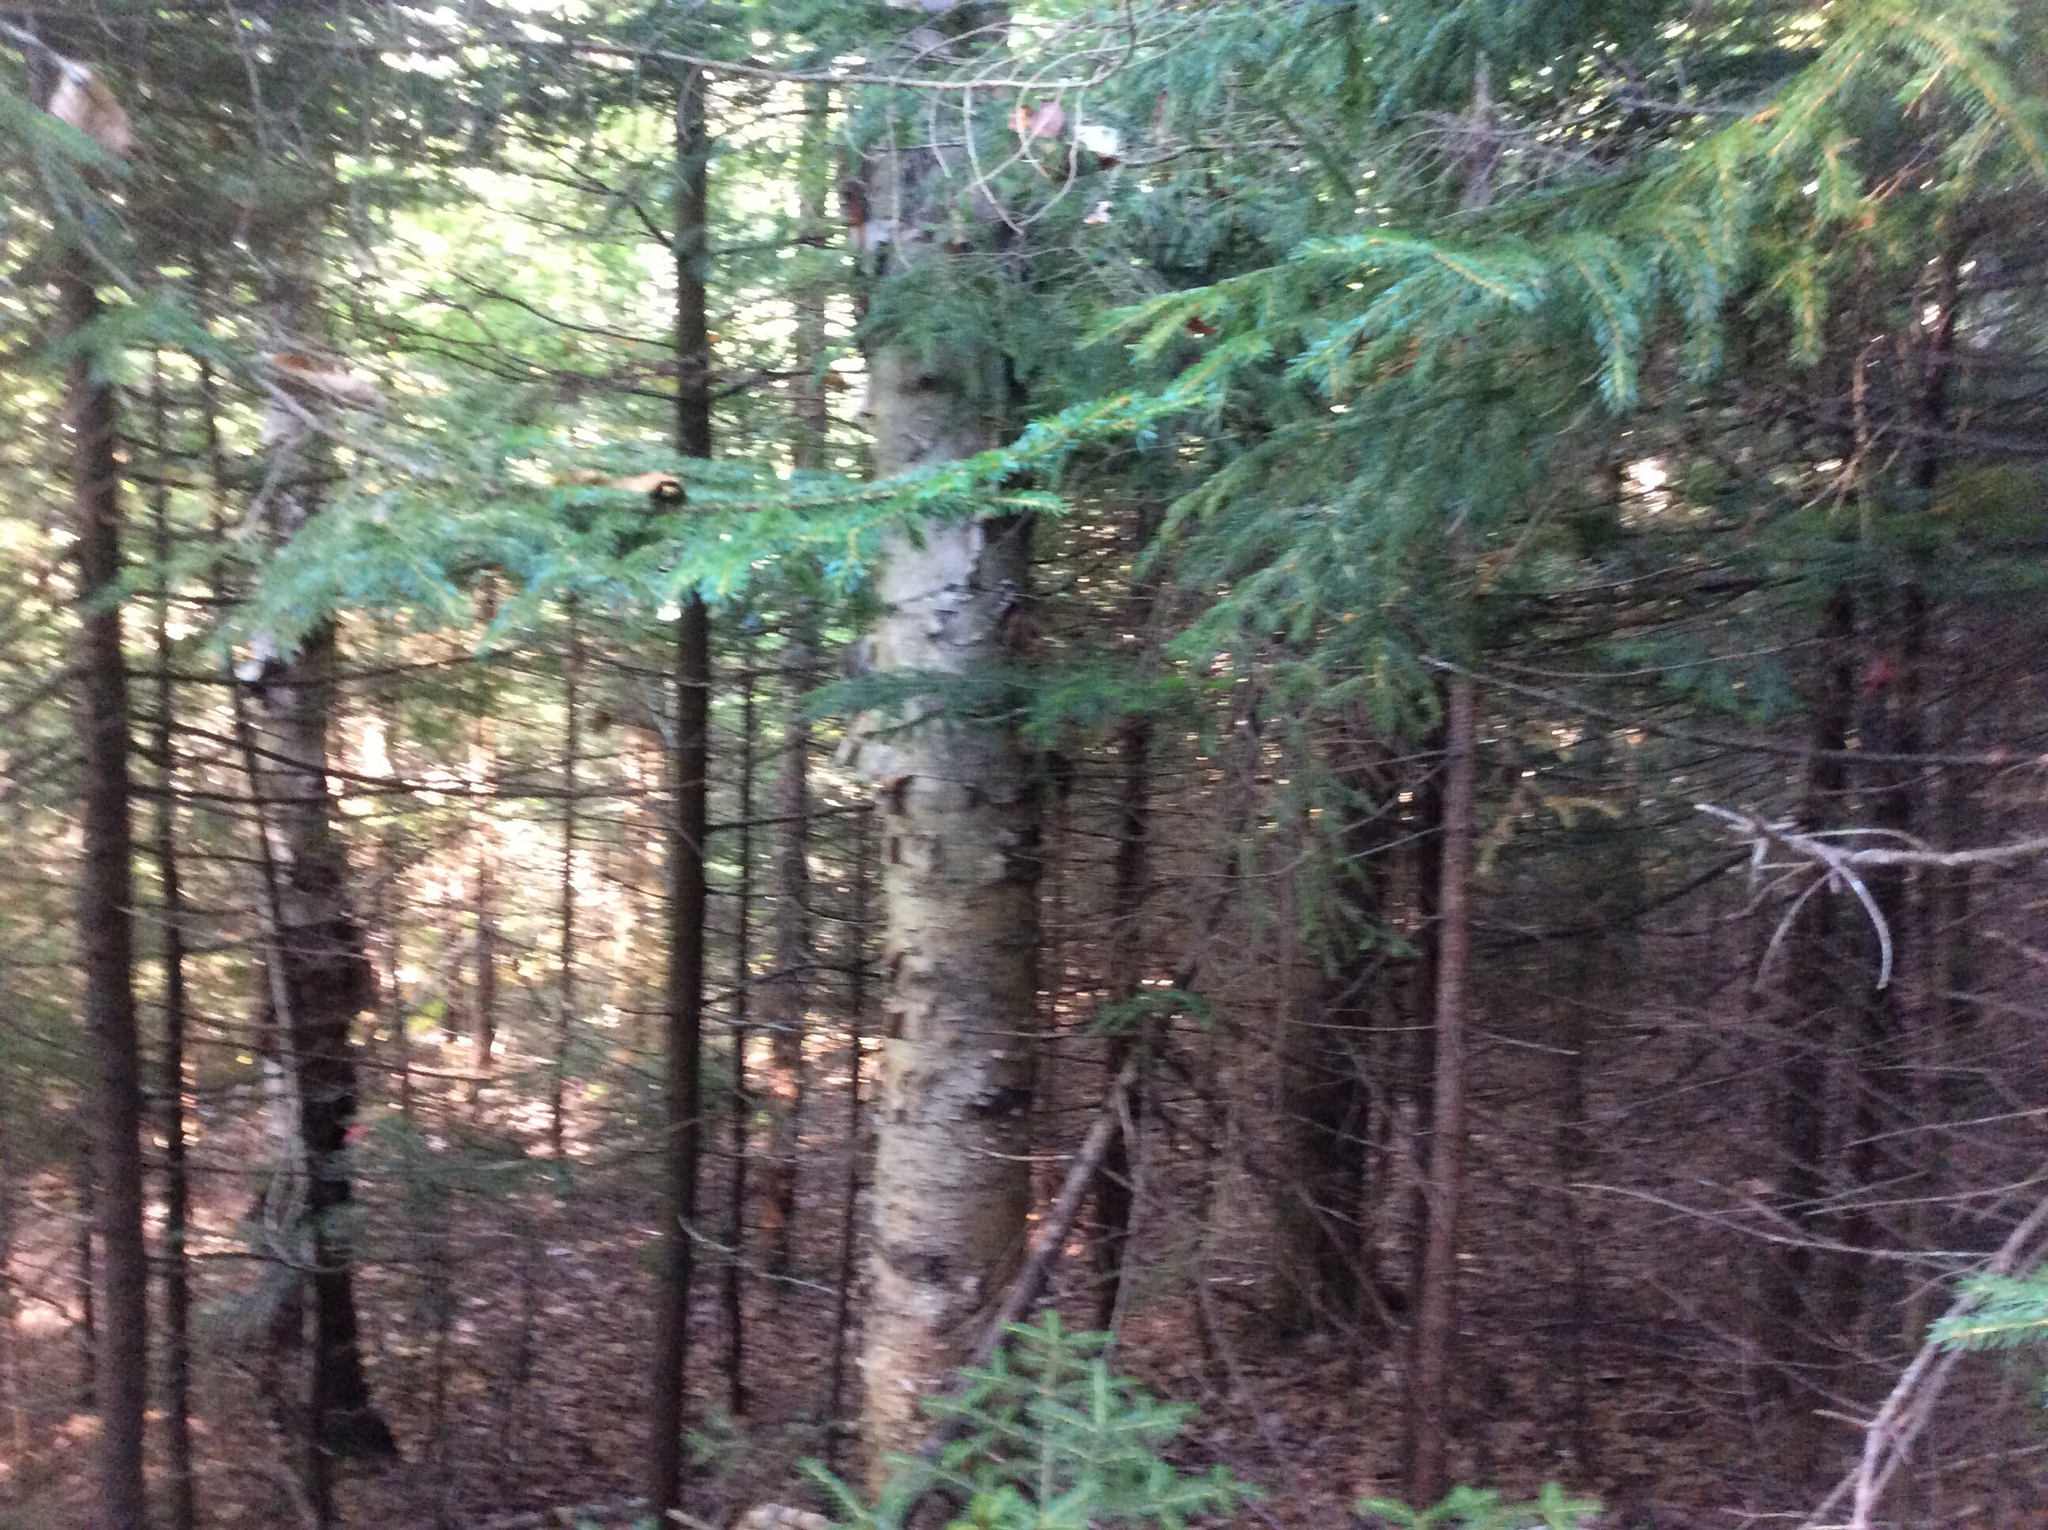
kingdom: Plantae
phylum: Tracheophyta
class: Magnoliopsida
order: Fagales
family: Betulaceae
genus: Betula
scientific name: Betula papyrifera
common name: Paper birch
